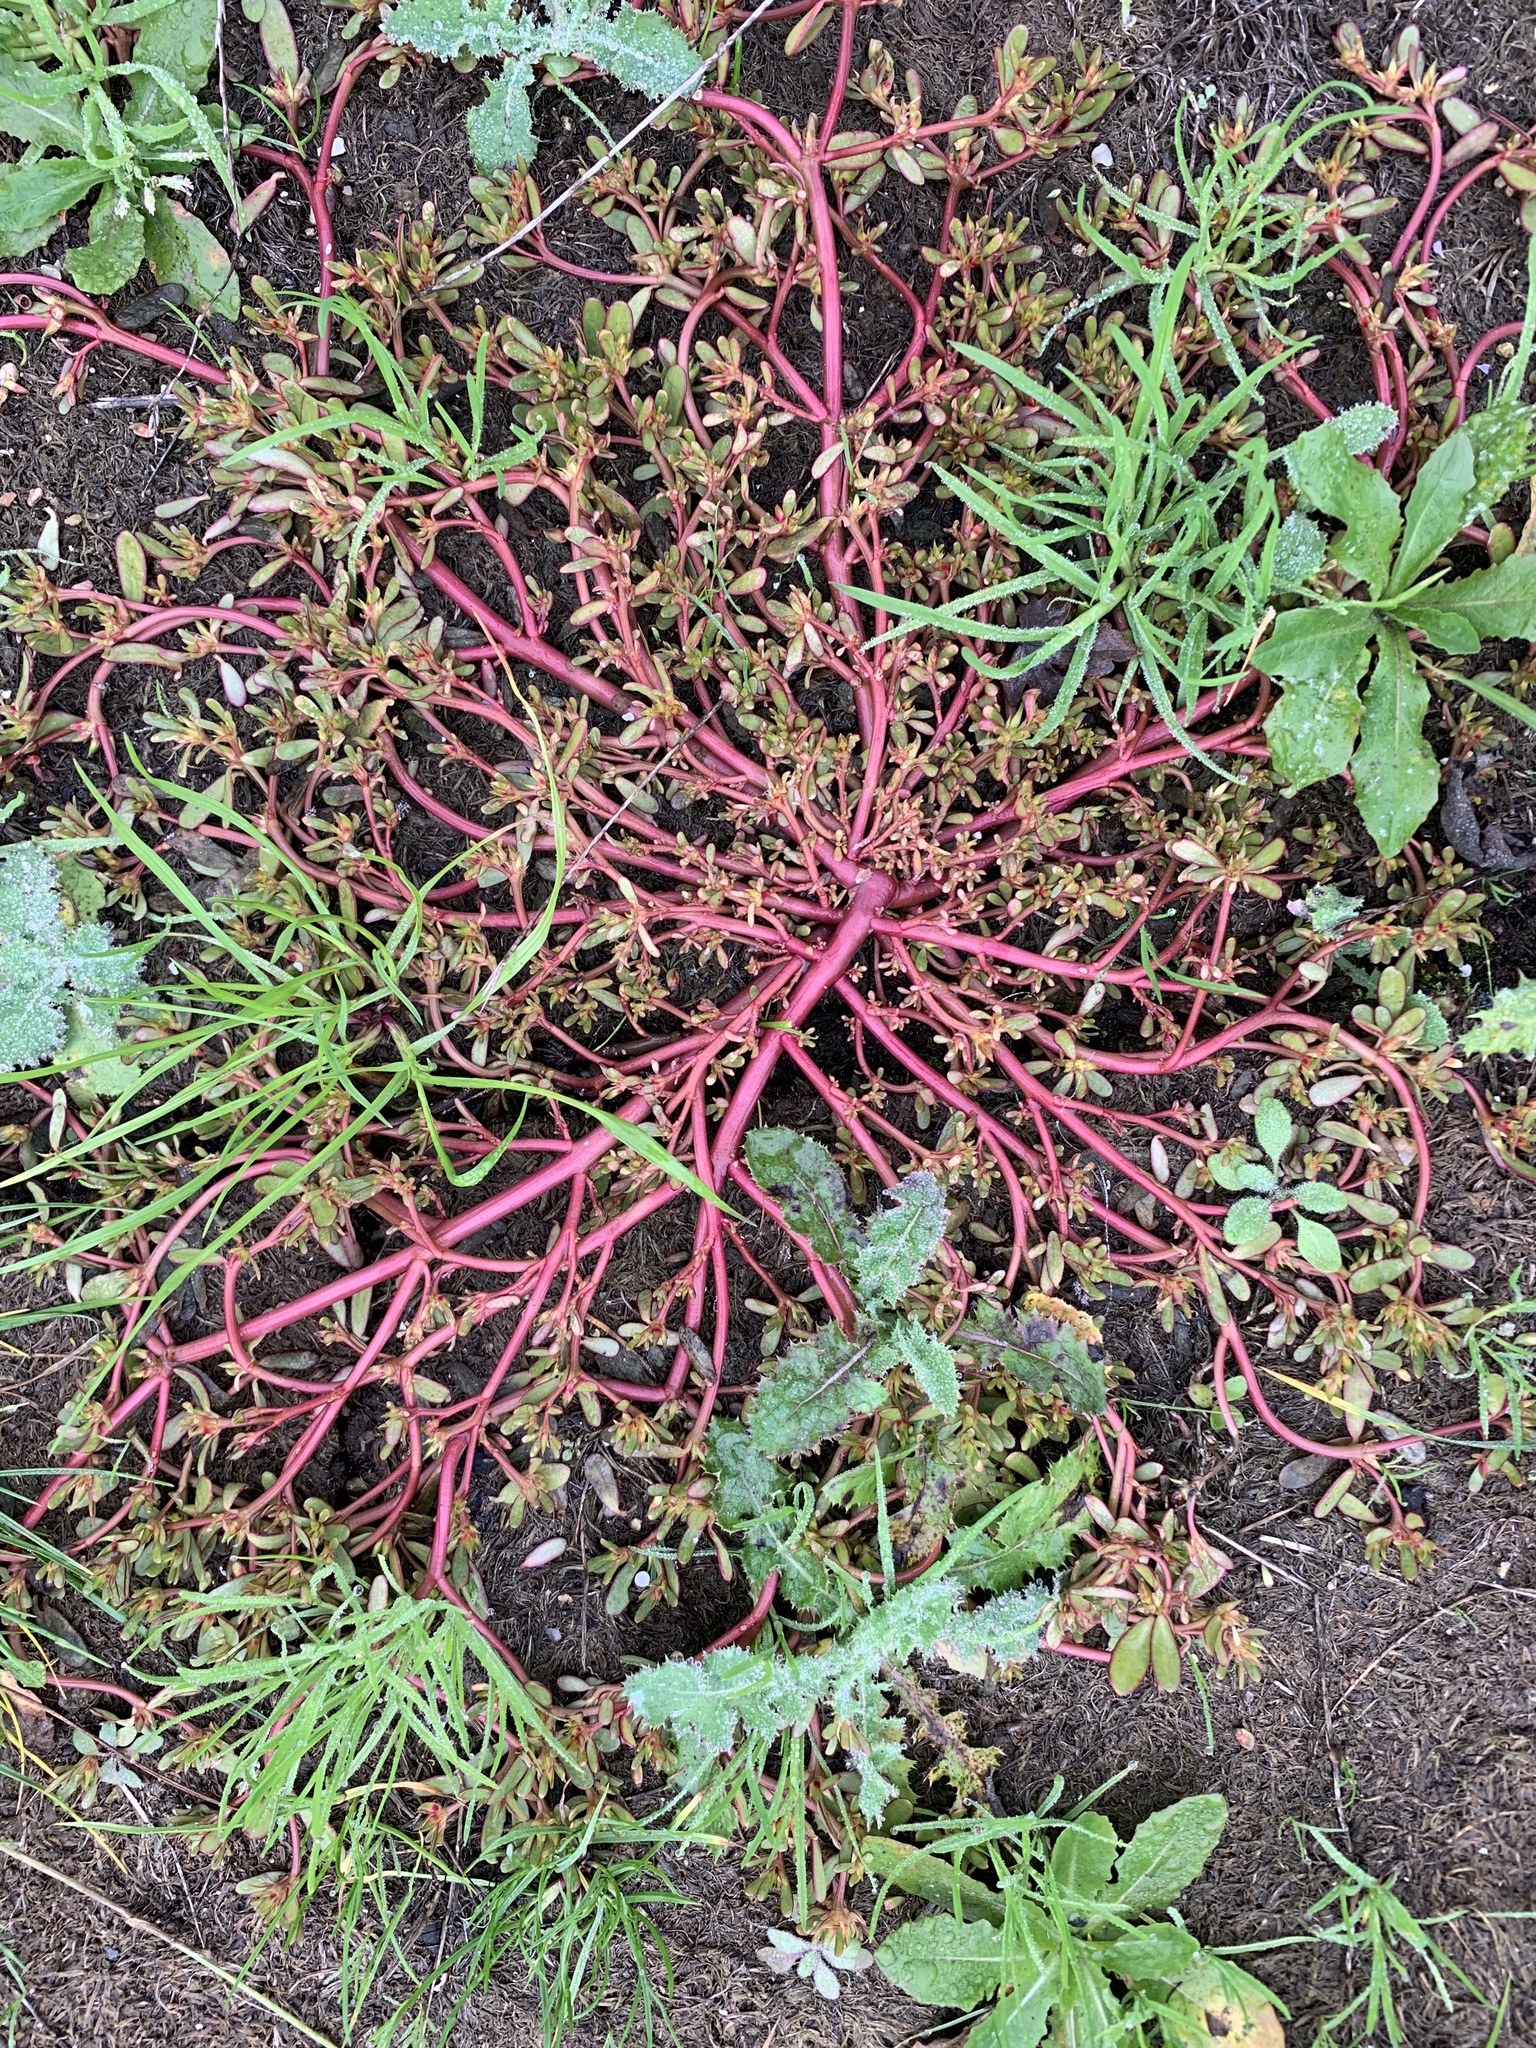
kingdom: Plantae
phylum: Tracheophyta
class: Magnoliopsida
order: Caryophyllales
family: Portulacaceae
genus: Portulaca
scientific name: Portulaca oleracea
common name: Common purslane
